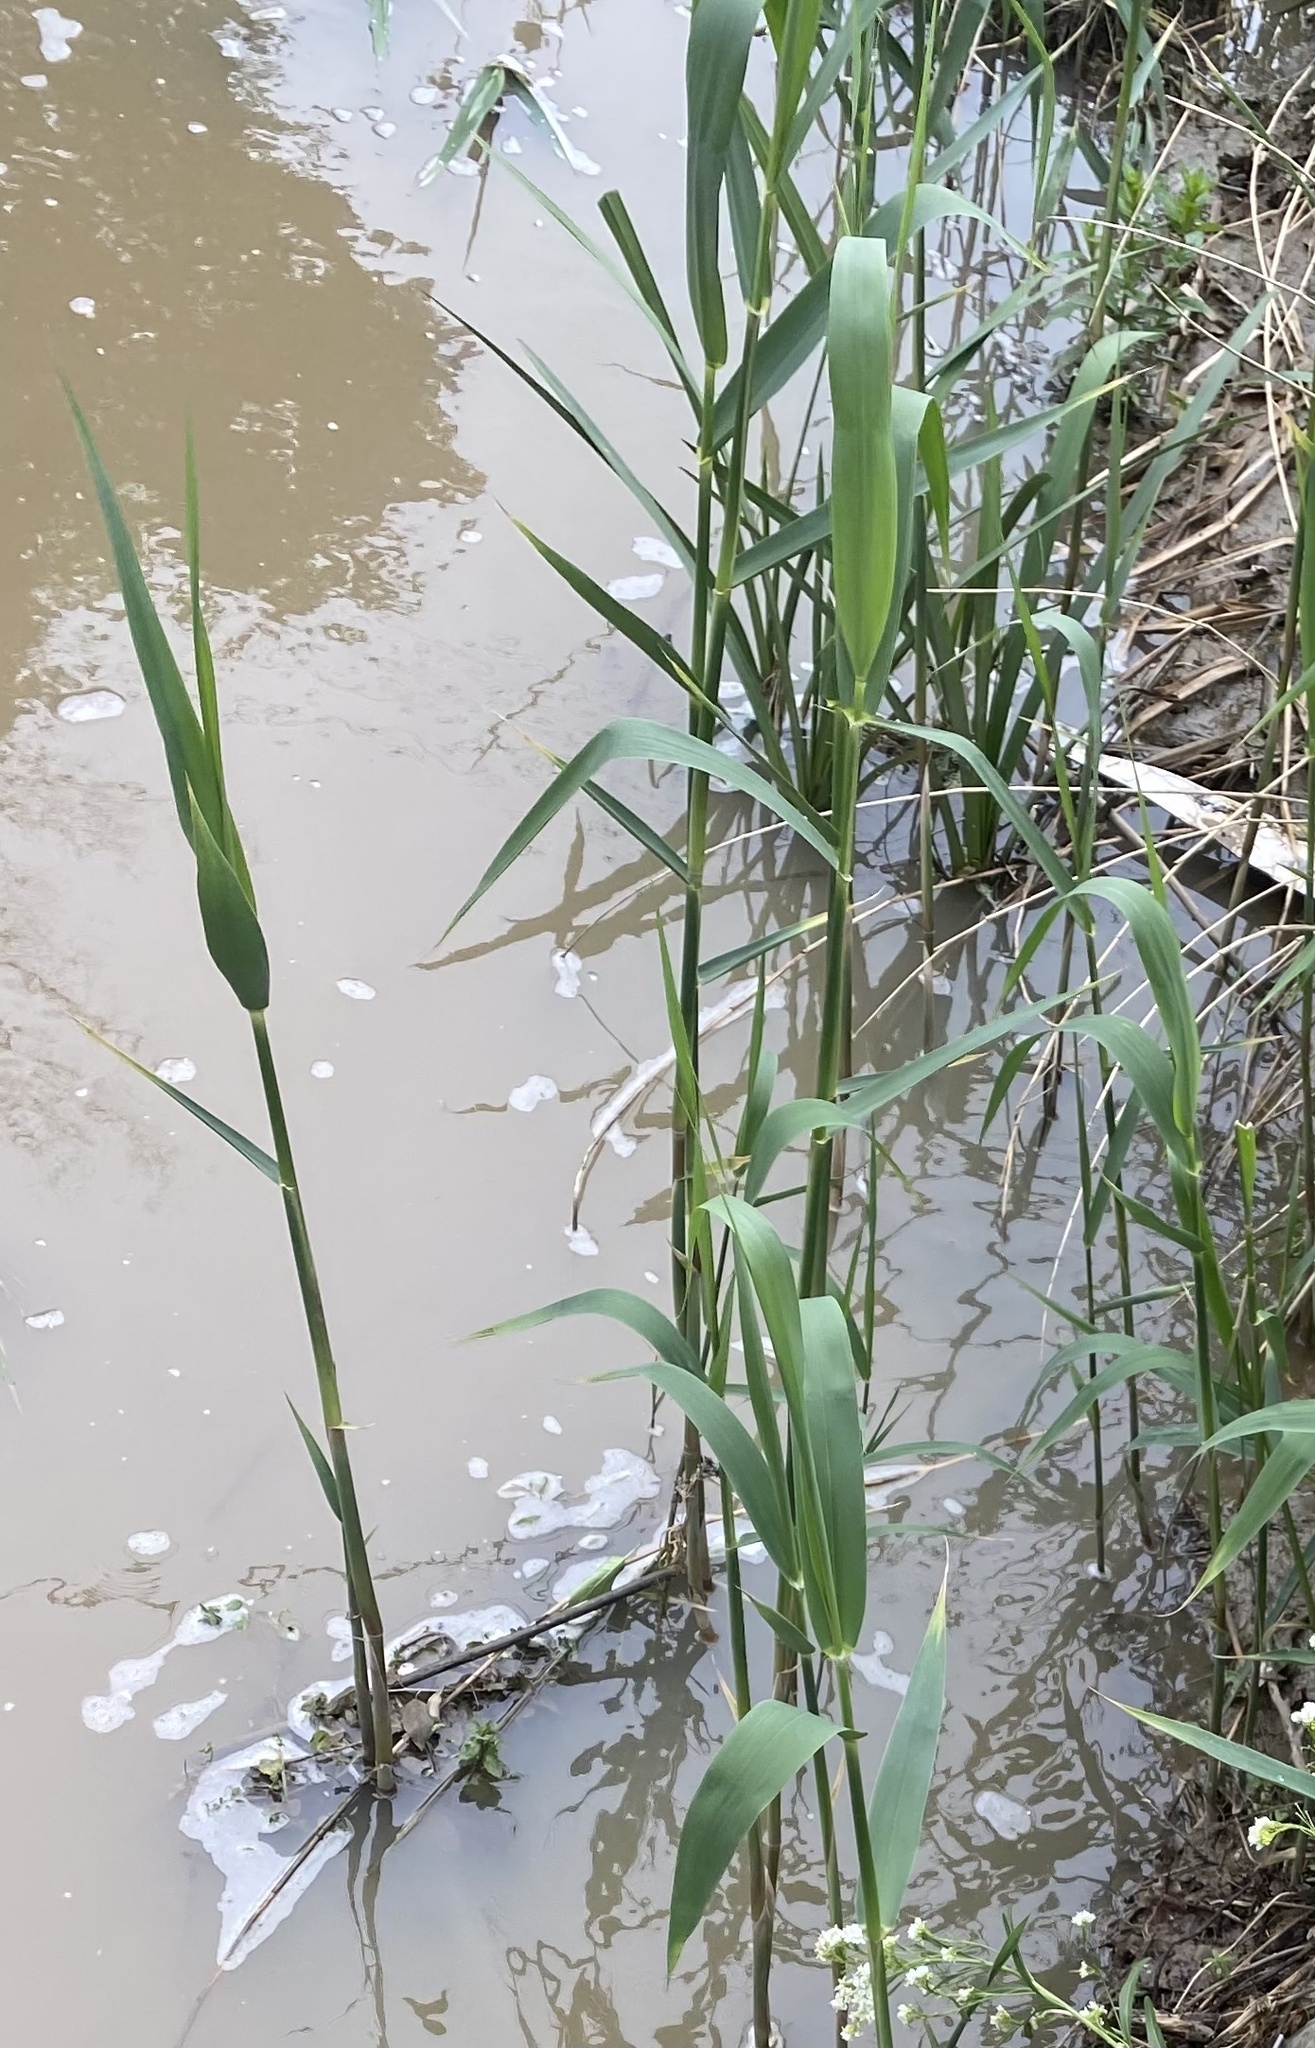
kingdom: Plantae
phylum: Tracheophyta
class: Liliopsida
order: Poales
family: Poaceae
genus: Phragmites
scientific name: Phragmites australis
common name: Common reed
